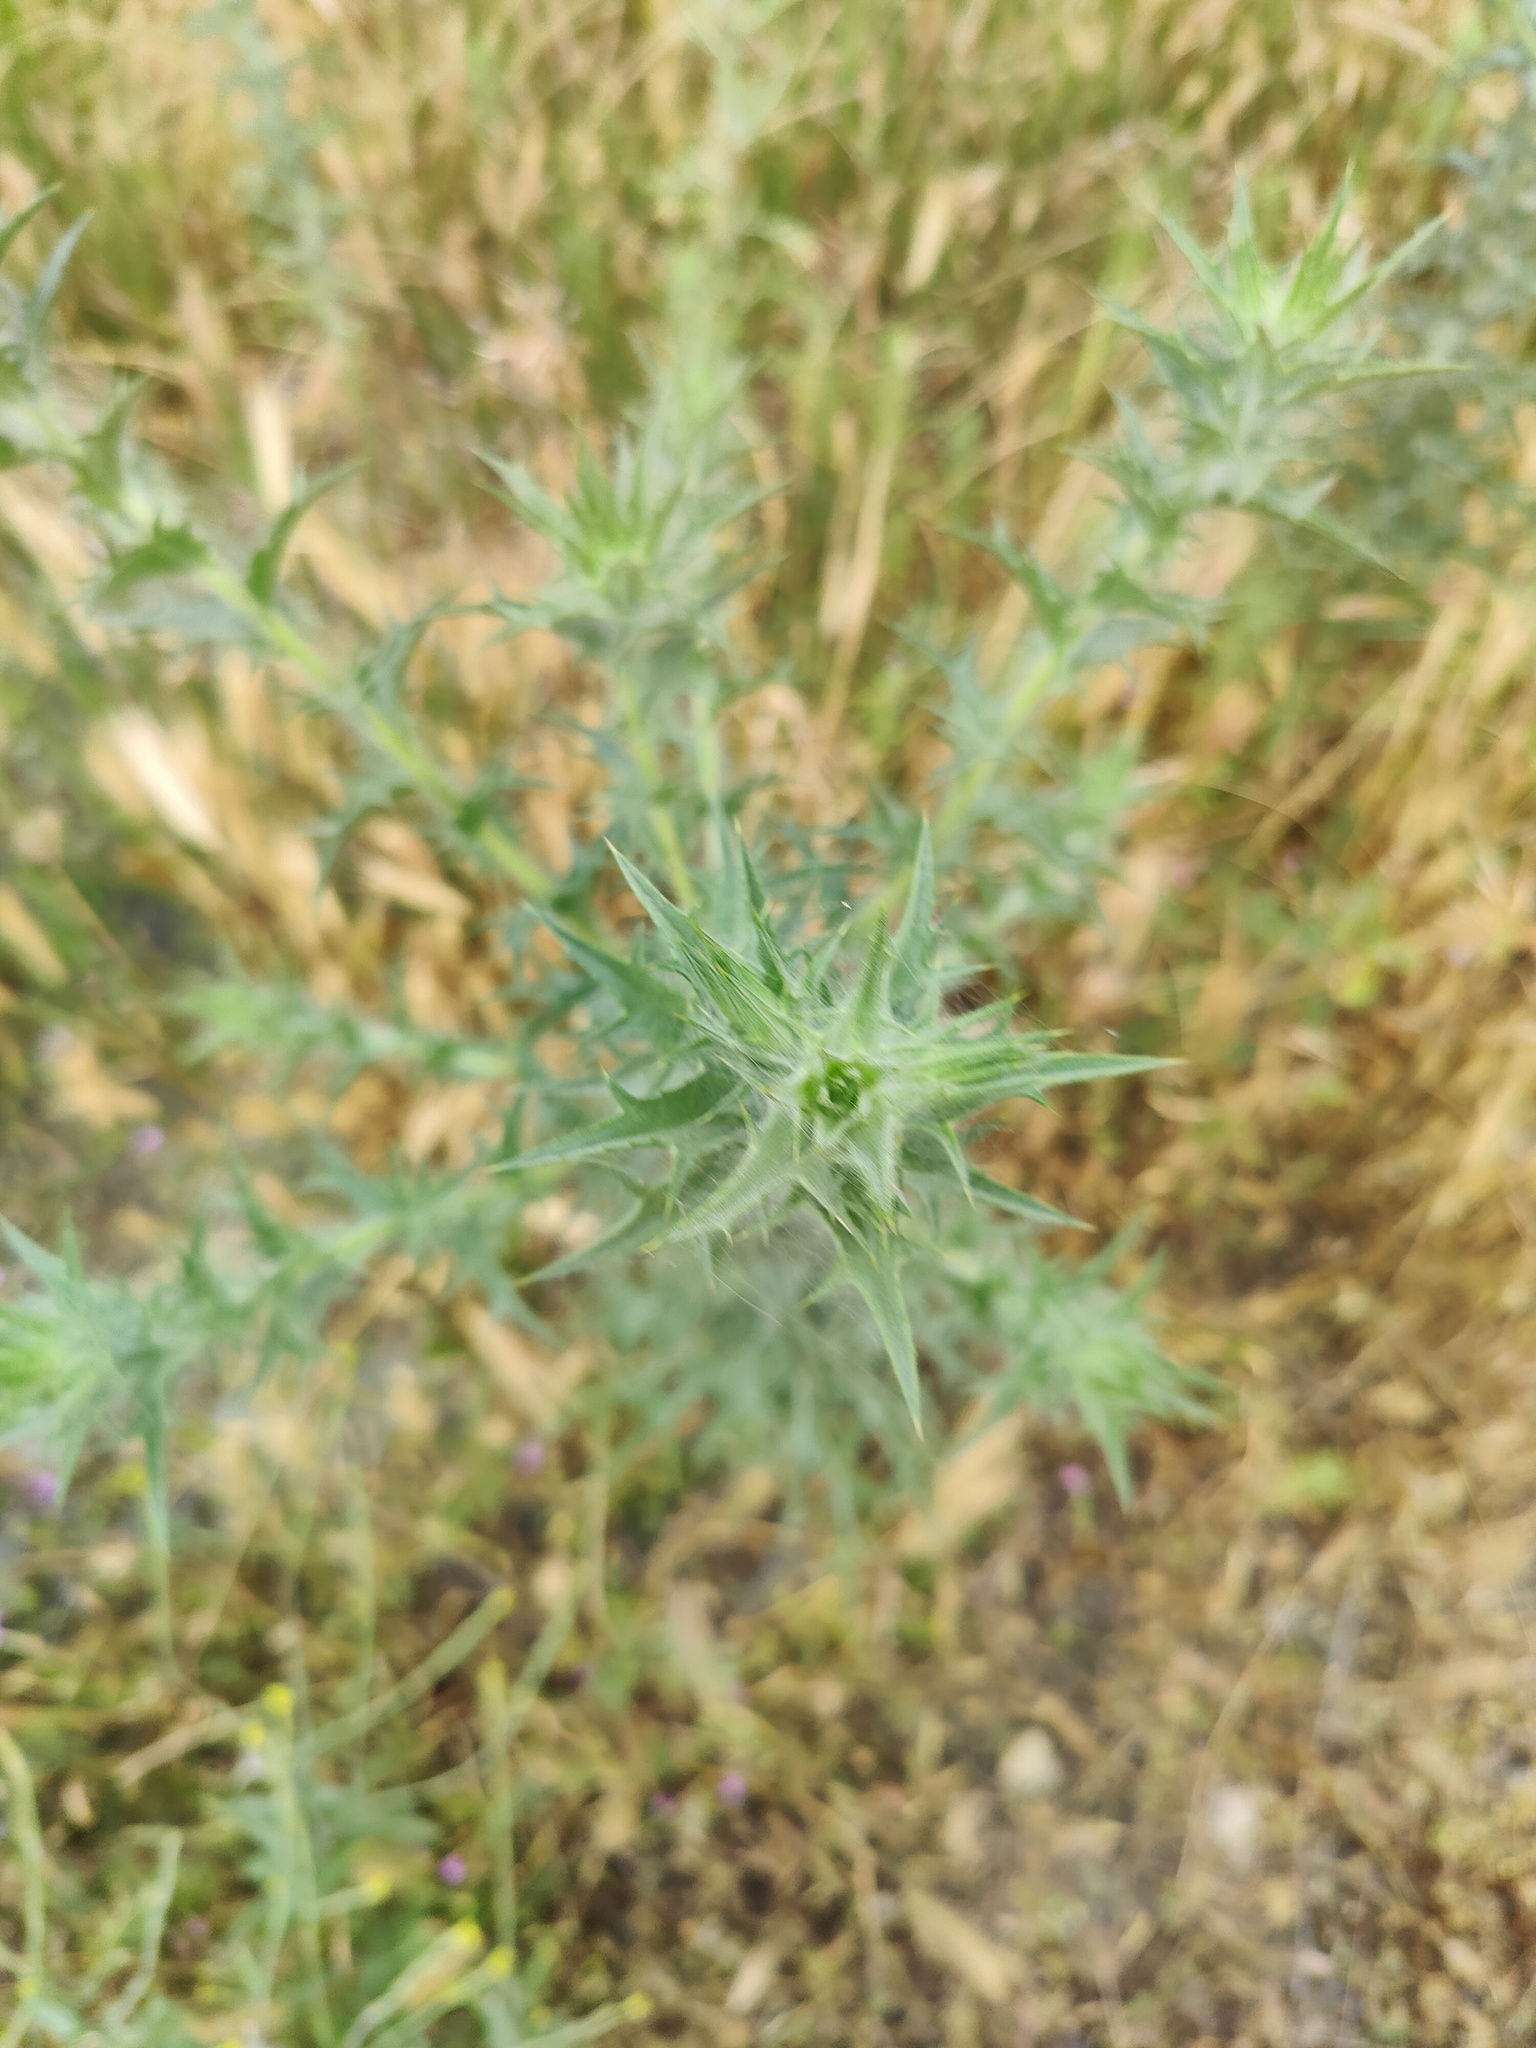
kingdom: Plantae
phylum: Tracheophyta
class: Magnoliopsida
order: Asterales
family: Asteraceae
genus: Carthamus
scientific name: Carthamus lanatus
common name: Downy safflower
